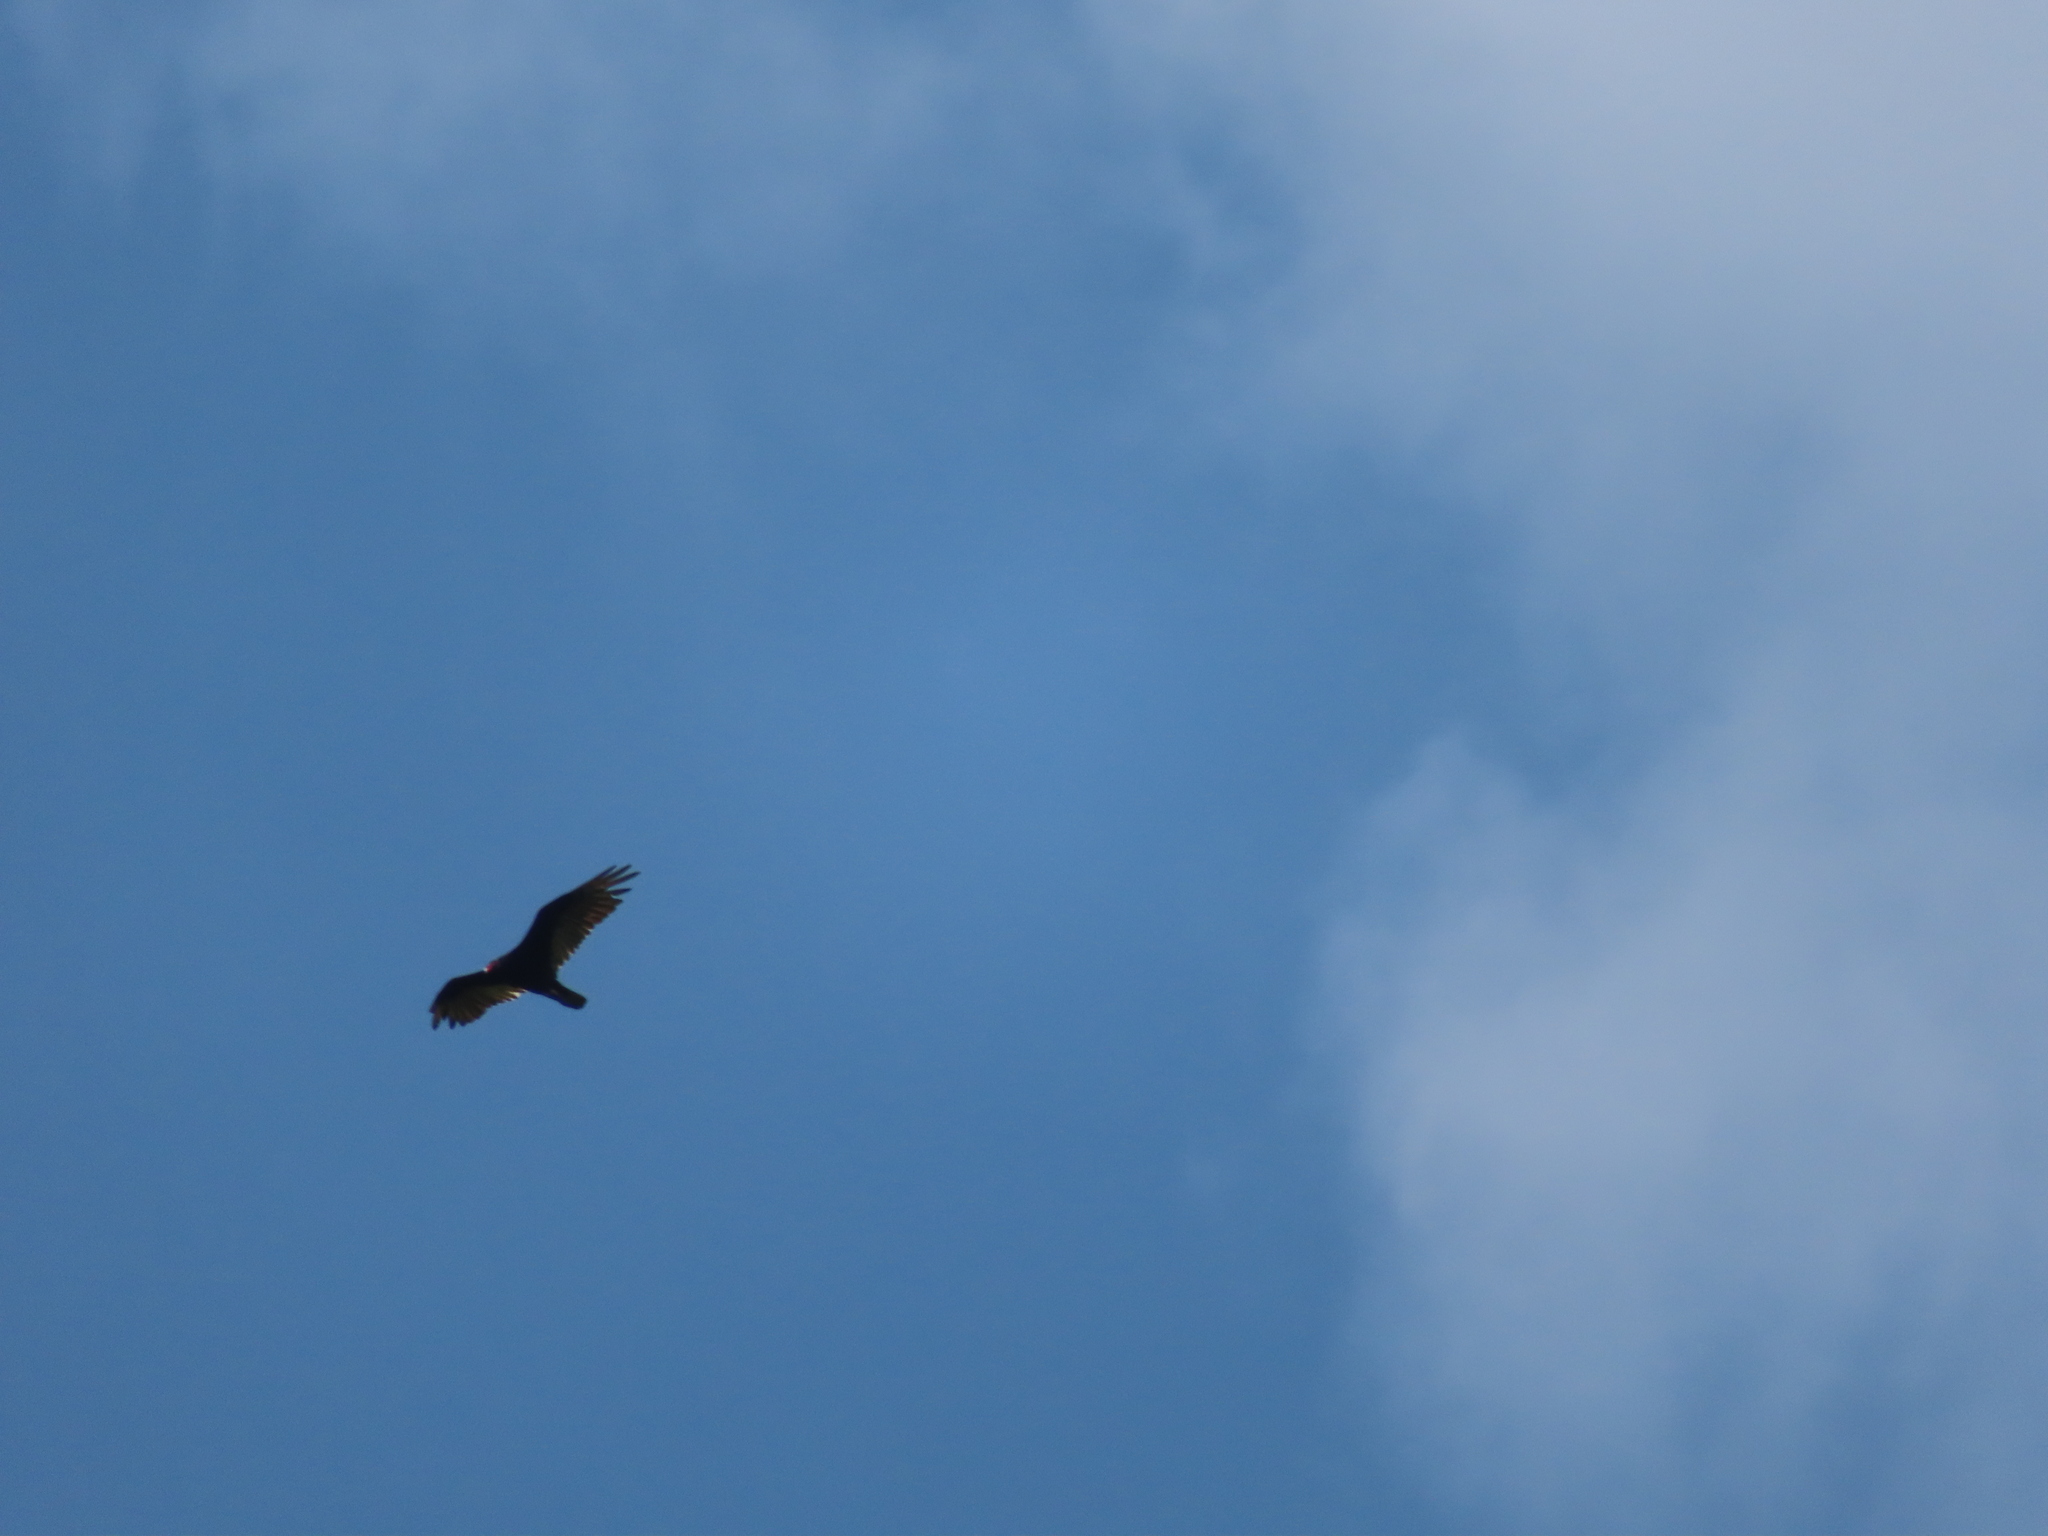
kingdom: Animalia
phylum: Chordata
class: Aves
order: Accipitriformes
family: Cathartidae
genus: Cathartes
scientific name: Cathartes aura
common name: Turkey vulture
